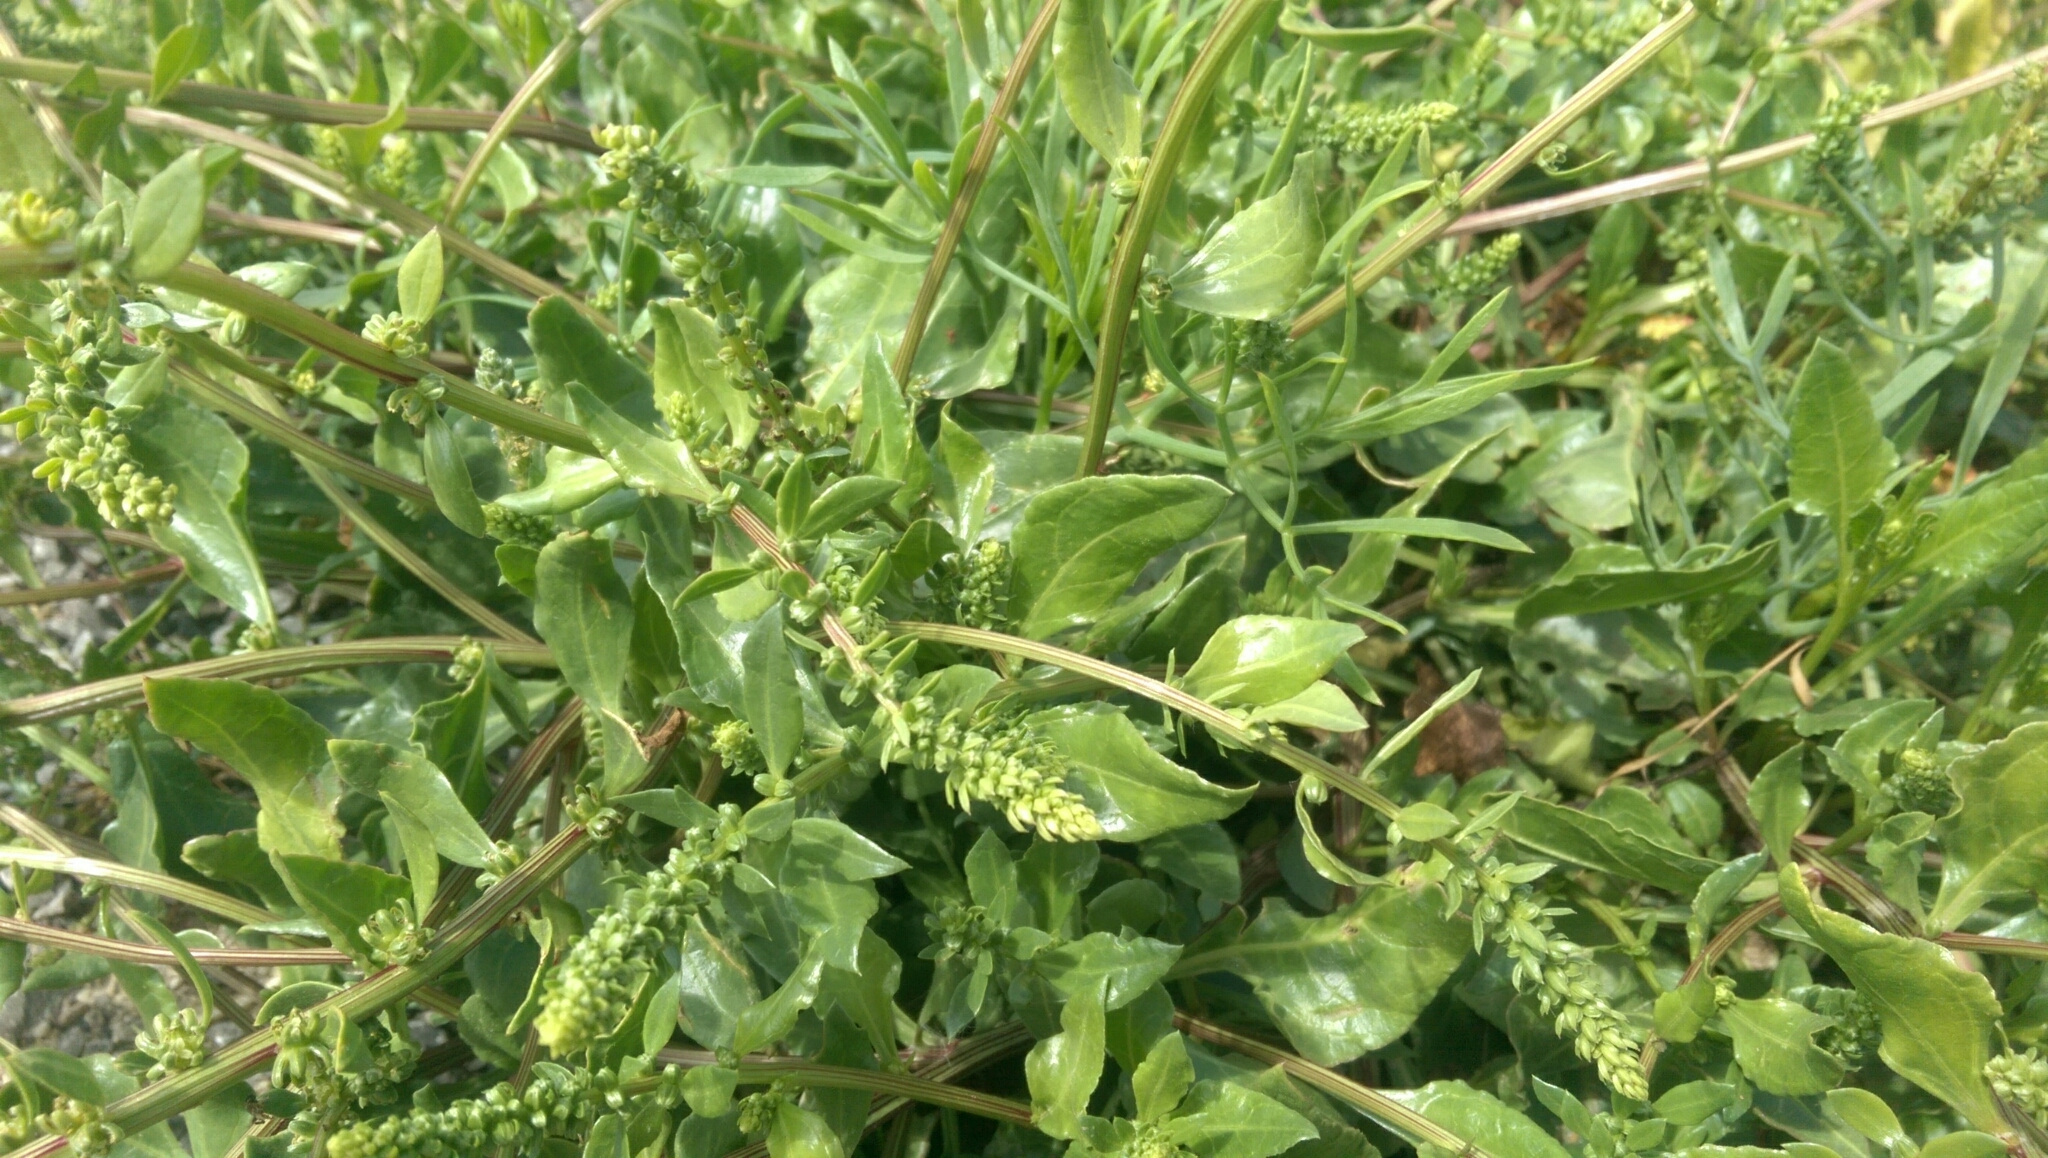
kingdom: Plantae
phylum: Tracheophyta
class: Magnoliopsida
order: Caryophyllales
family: Amaranthaceae
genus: Beta
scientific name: Beta vulgaris
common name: Beet
